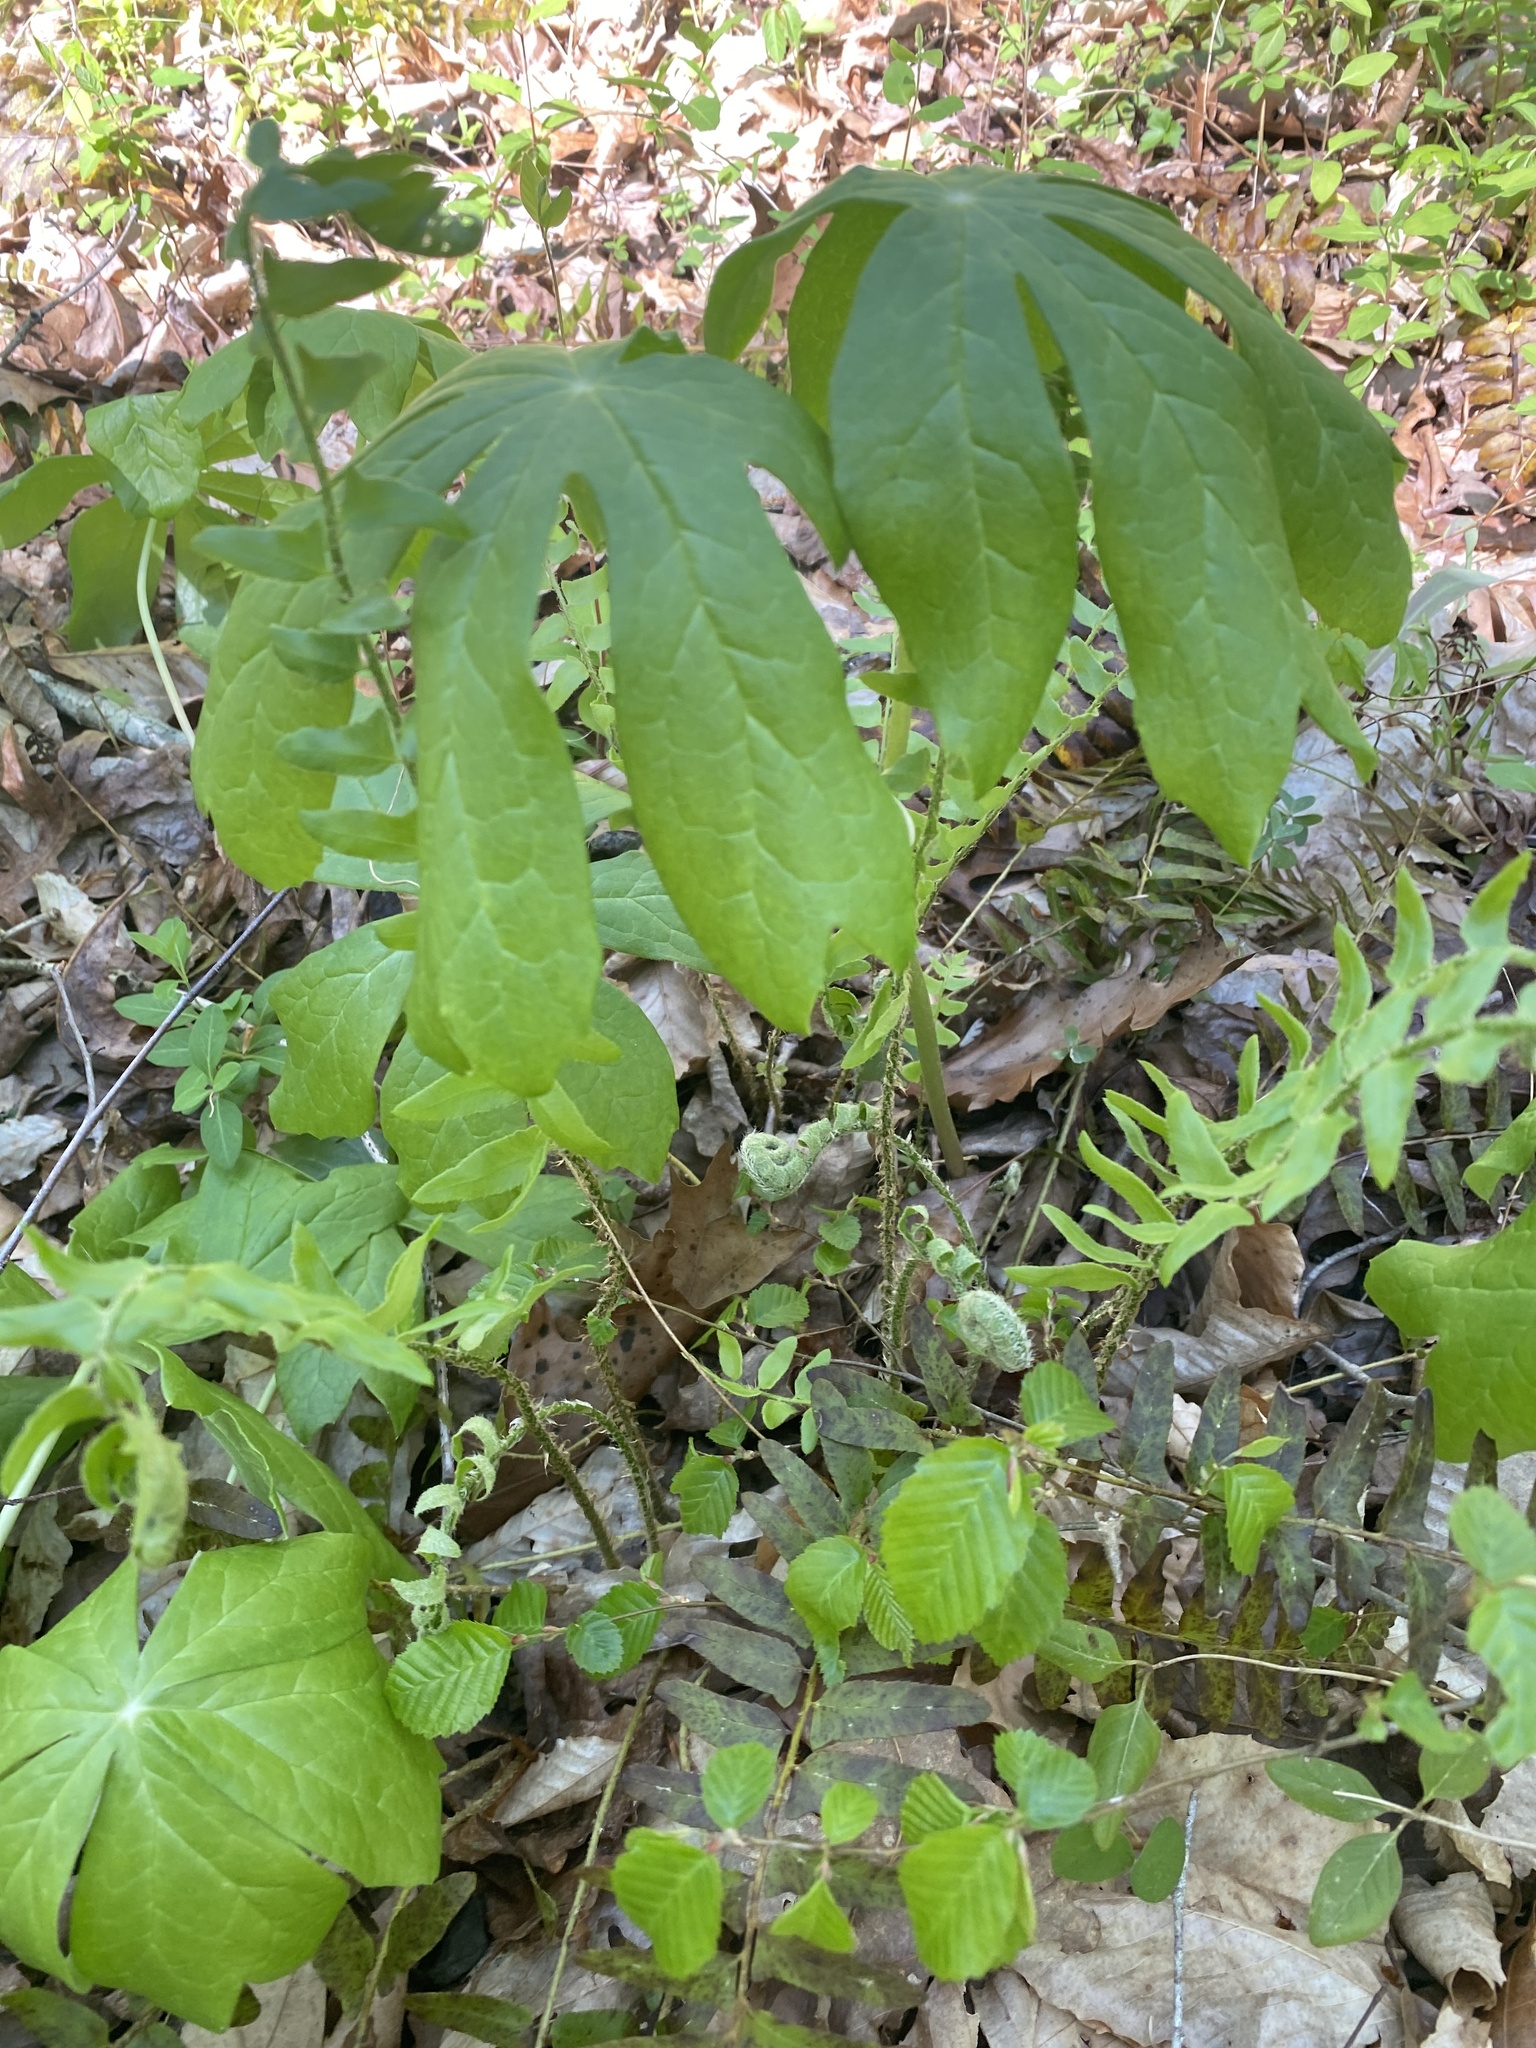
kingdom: Plantae
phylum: Tracheophyta
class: Magnoliopsida
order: Ranunculales
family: Berberidaceae
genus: Podophyllum
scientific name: Podophyllum peltatum
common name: Wild mandrake
